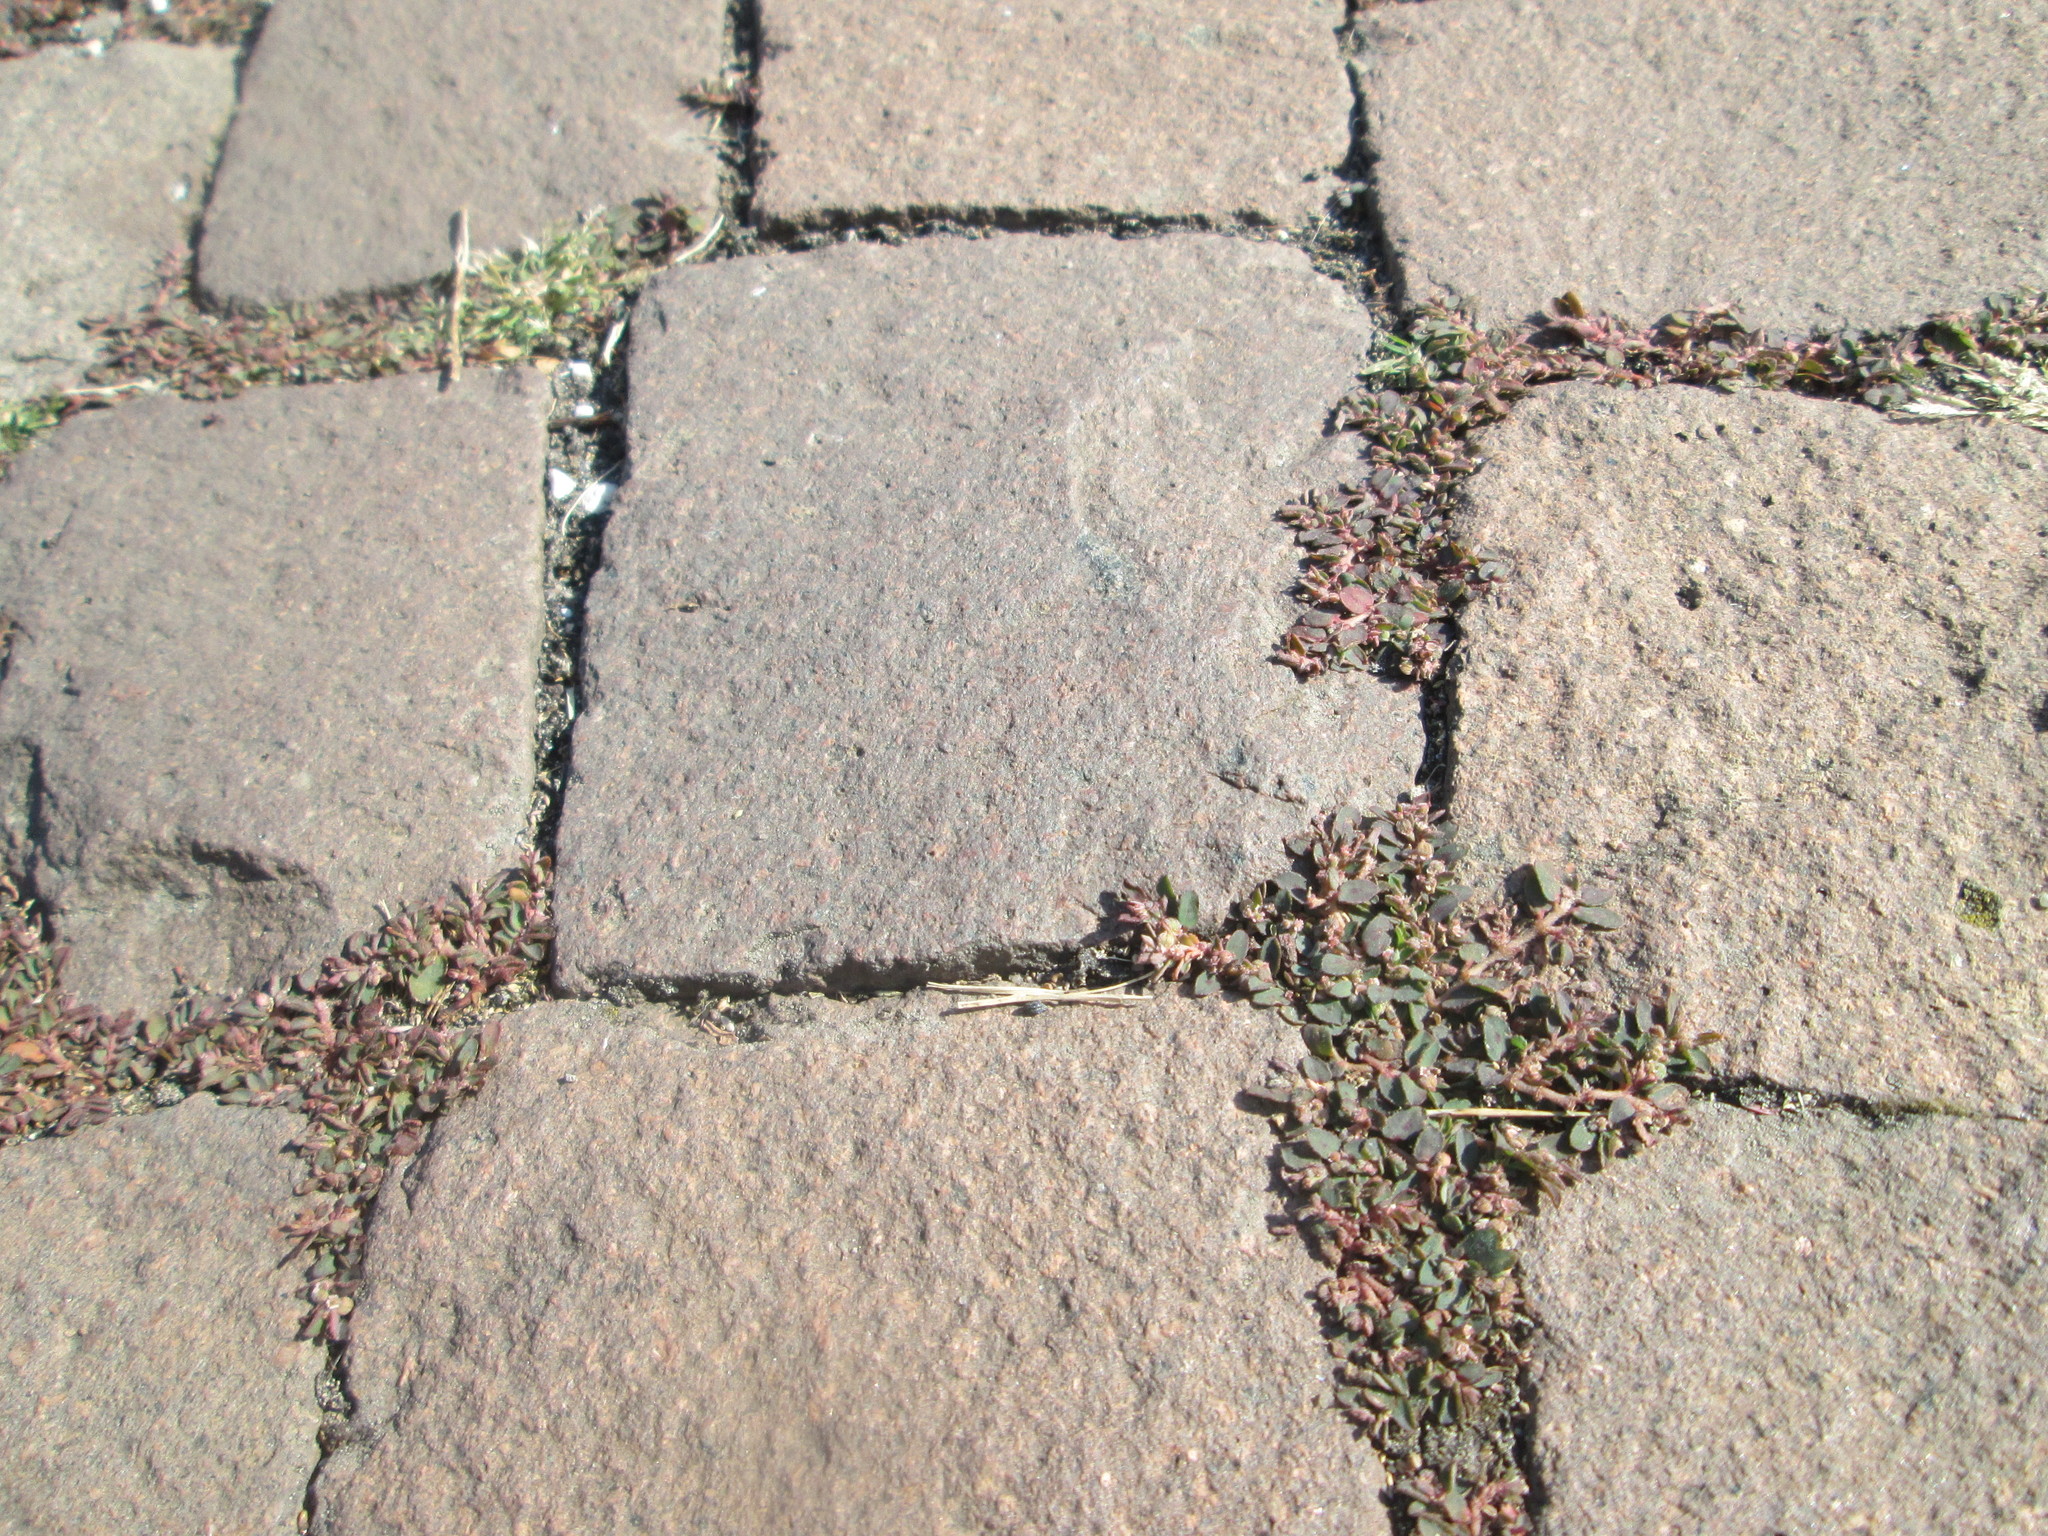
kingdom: Plantae
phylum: Tracheophyta
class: Magnoliopsida
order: Malpighiales
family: Euphorbiaceae
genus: Euphorbia
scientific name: Euphorbia maculata
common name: Spotted spurge
